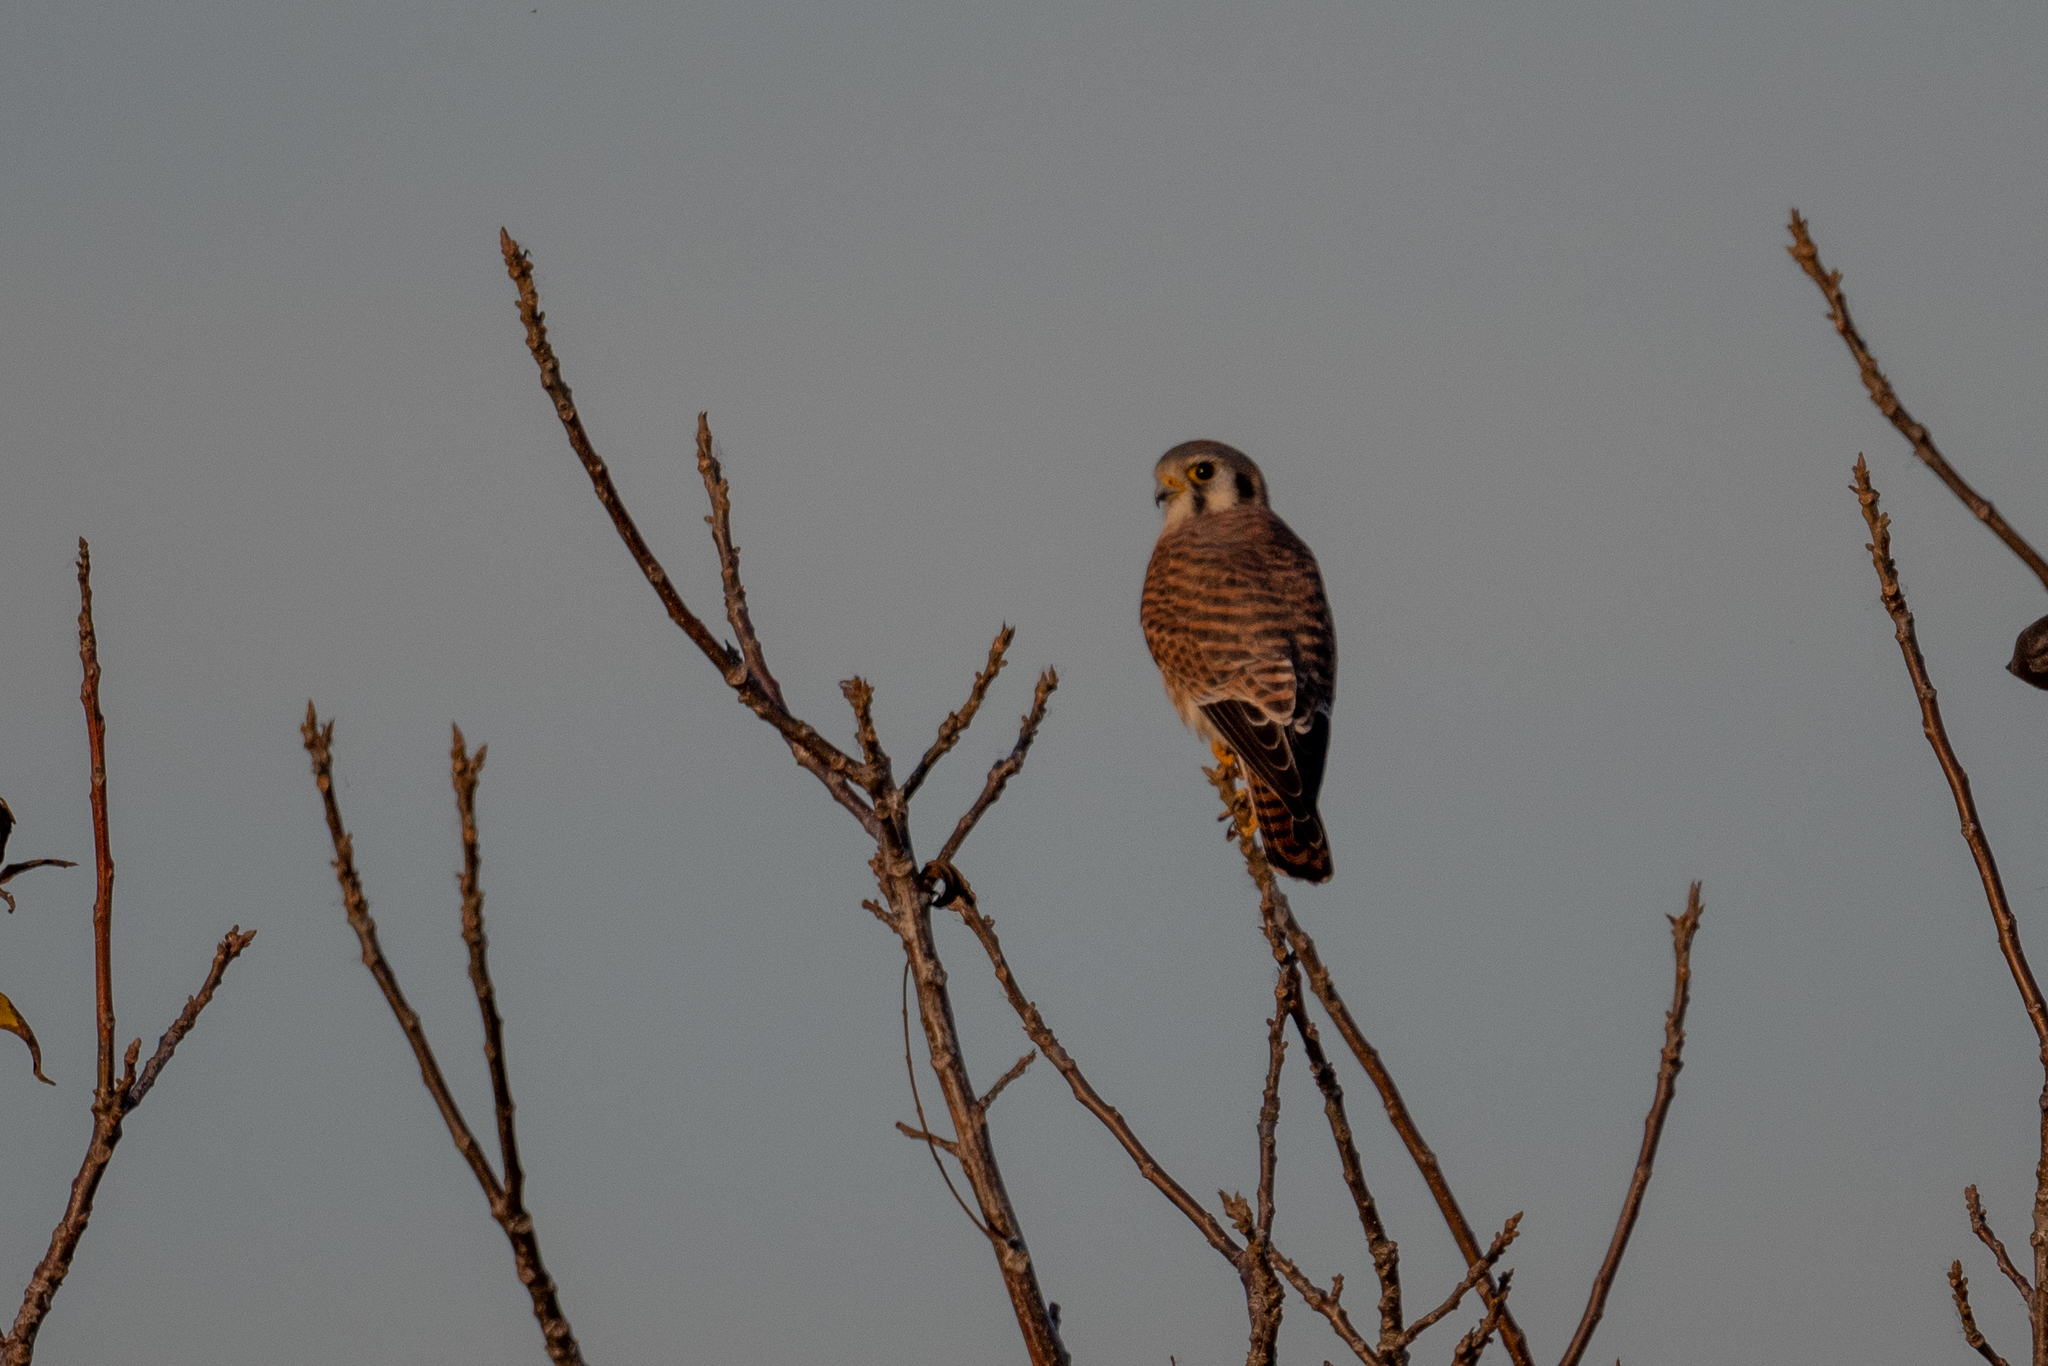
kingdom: Animalia
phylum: Chordata
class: Aves
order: Falconiformes
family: Falconidae
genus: Falco
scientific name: Falco sparverius
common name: American kestrel
